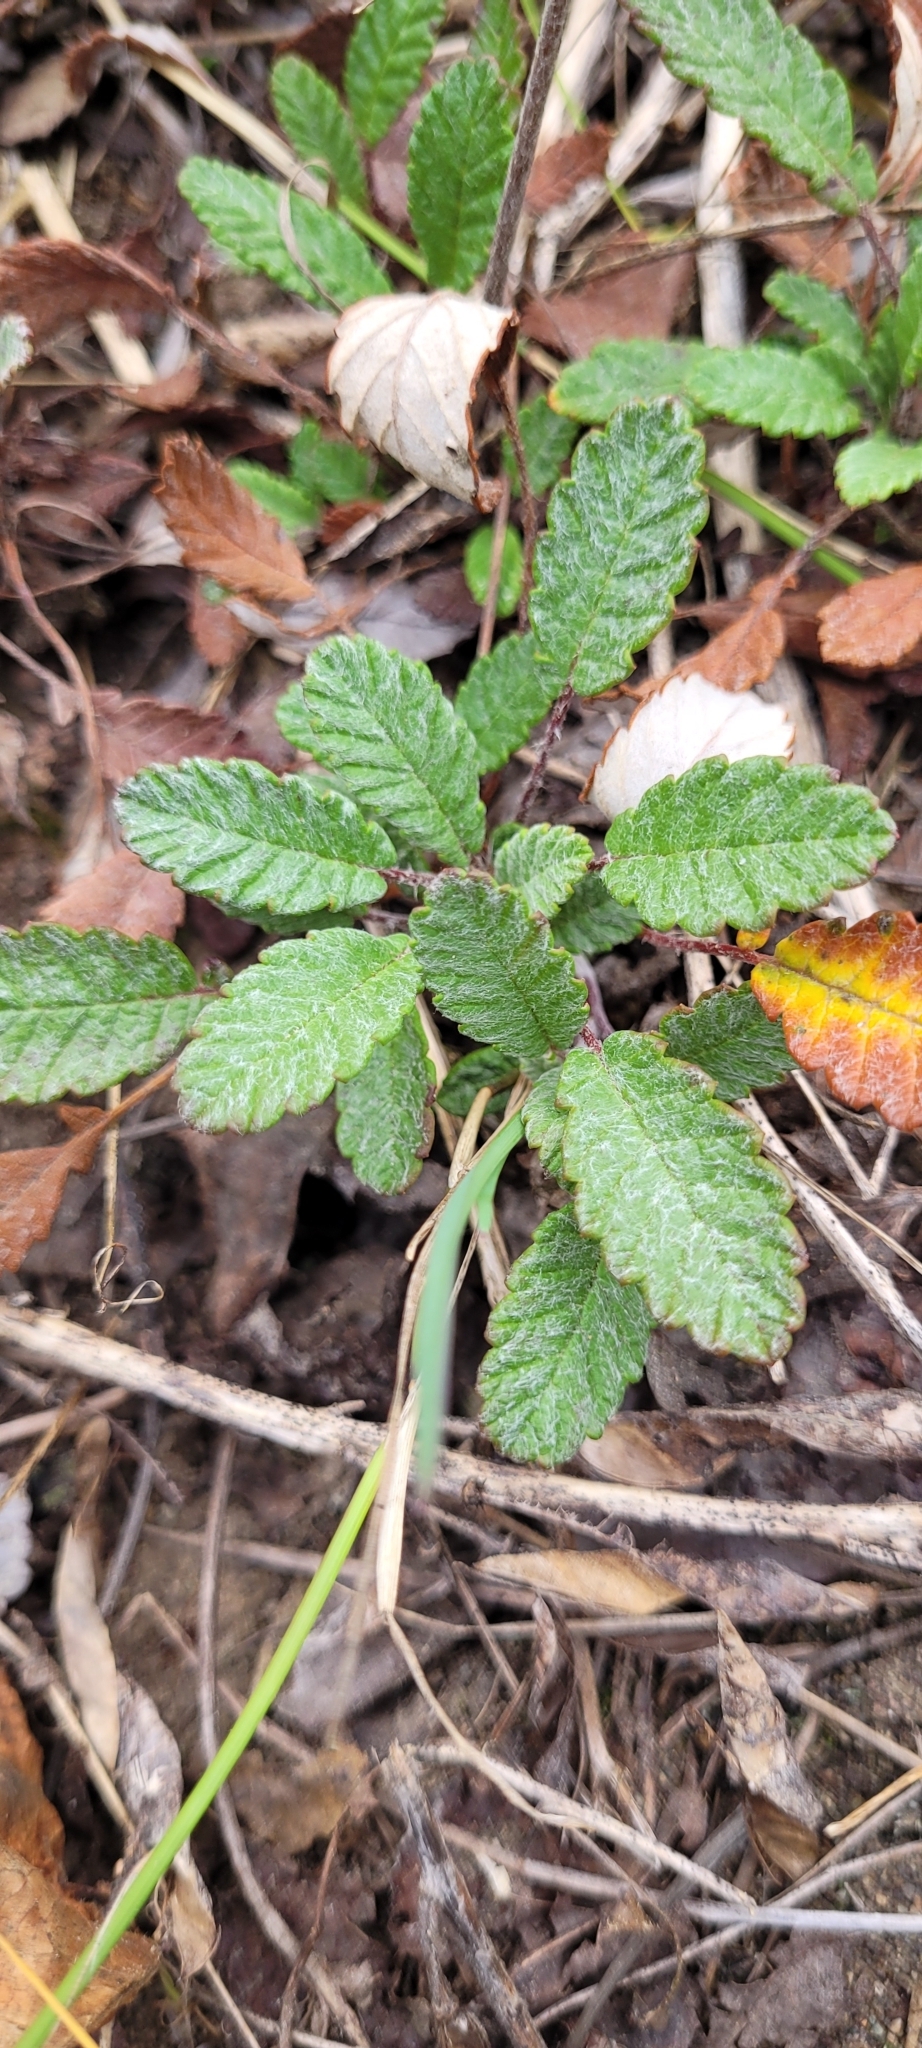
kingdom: Plantae
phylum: Tracheophyta
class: Magnoliopsida
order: Rosales
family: Rosaceae
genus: Dryas
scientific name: Dryas drummondii
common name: Drummond's dryad
